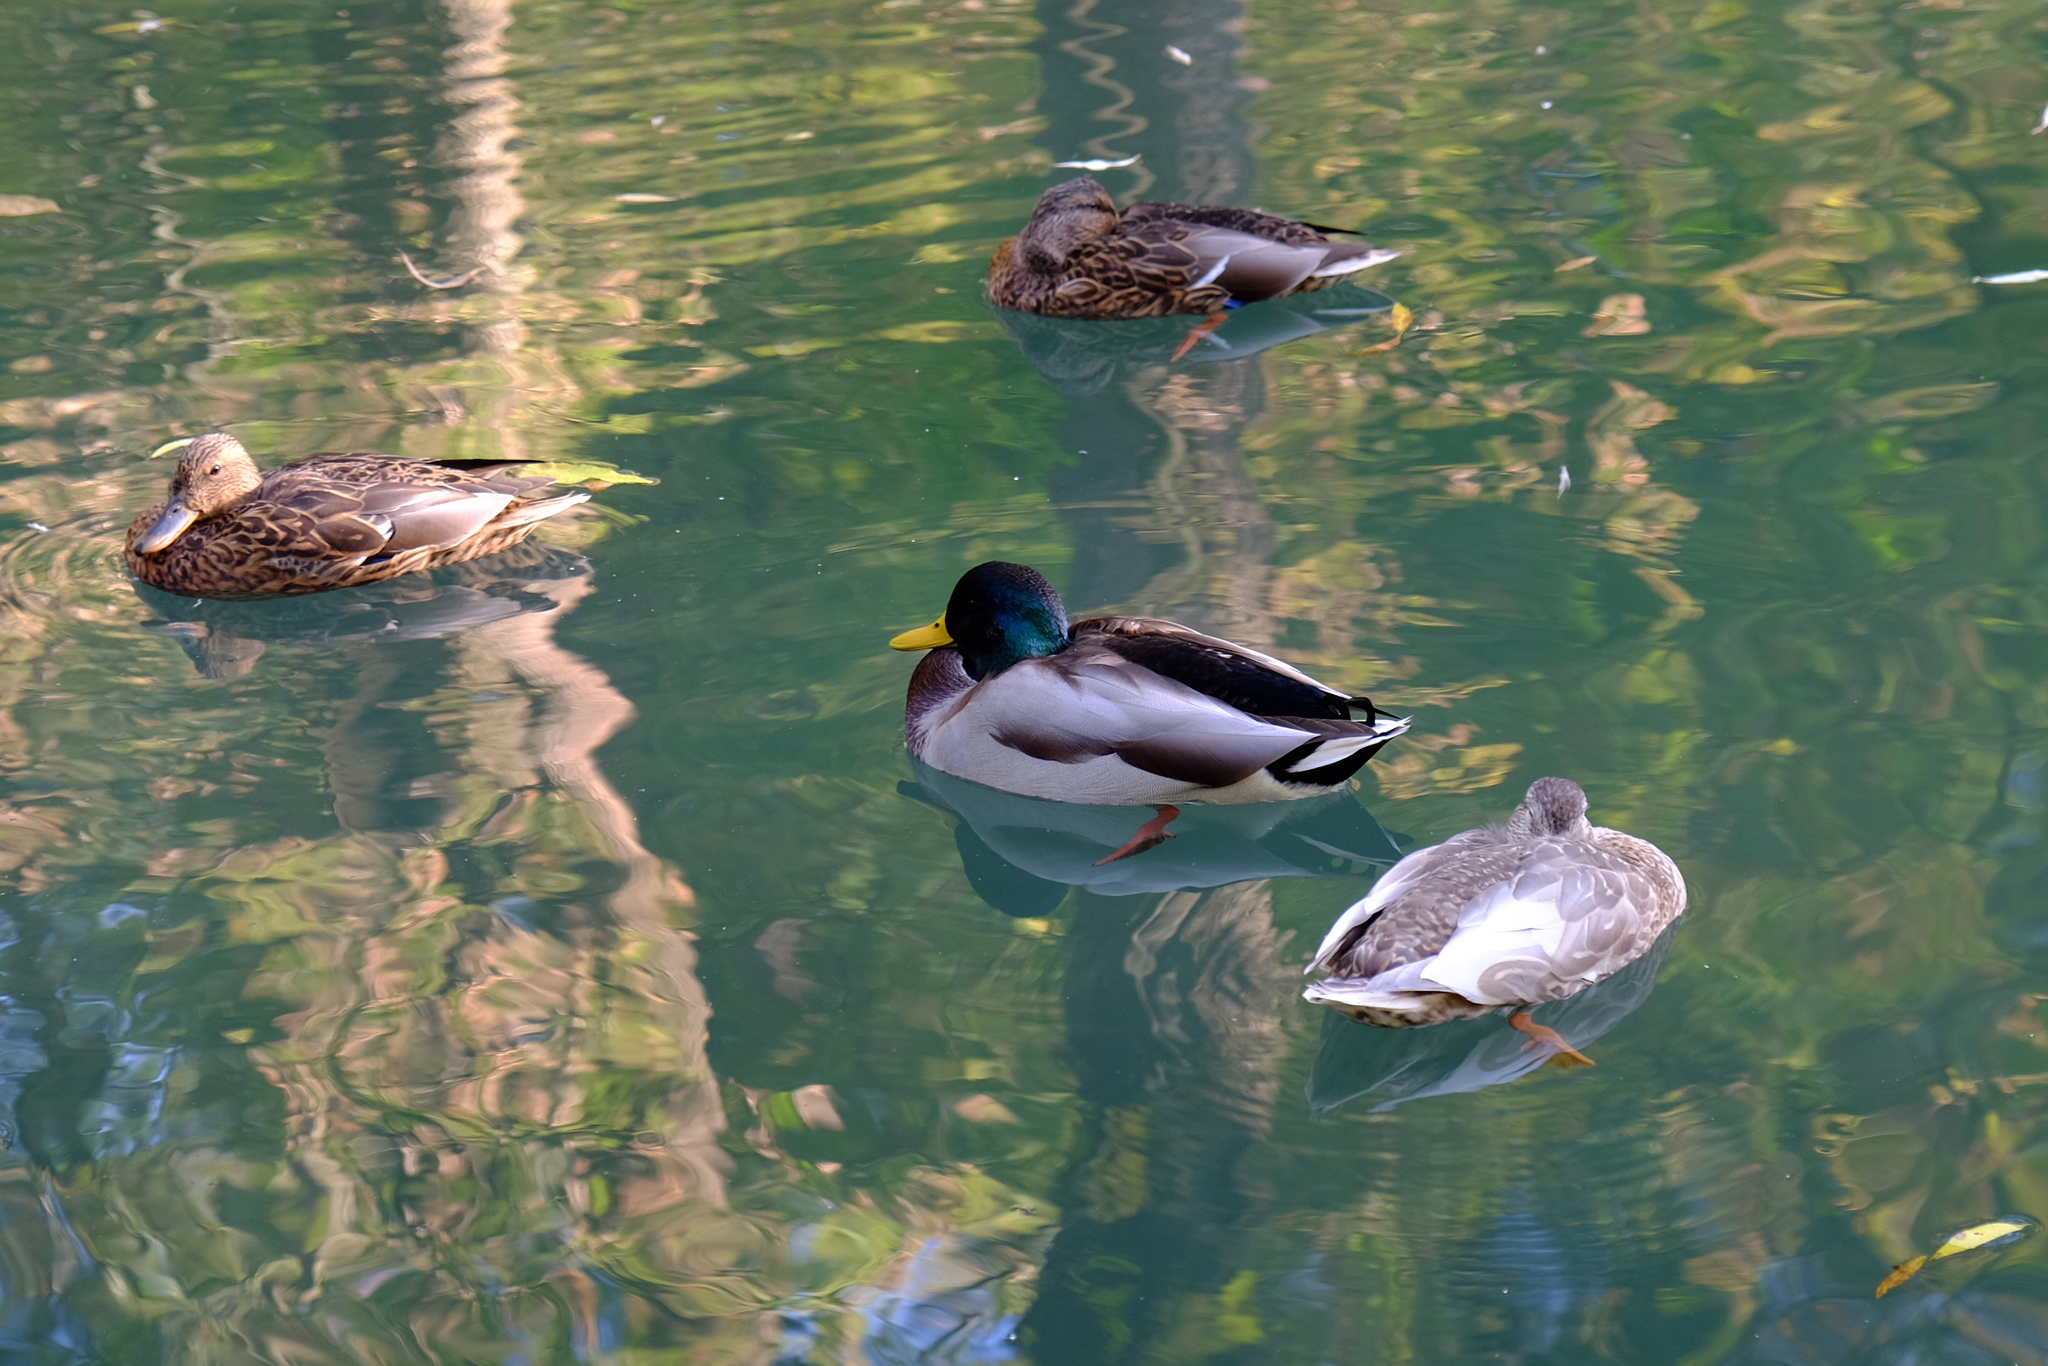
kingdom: Animalia
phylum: Chordata
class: Aves
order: Anseriformes
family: Anatidae
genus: Anas
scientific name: Anas platyrhynchos
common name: Mallard
